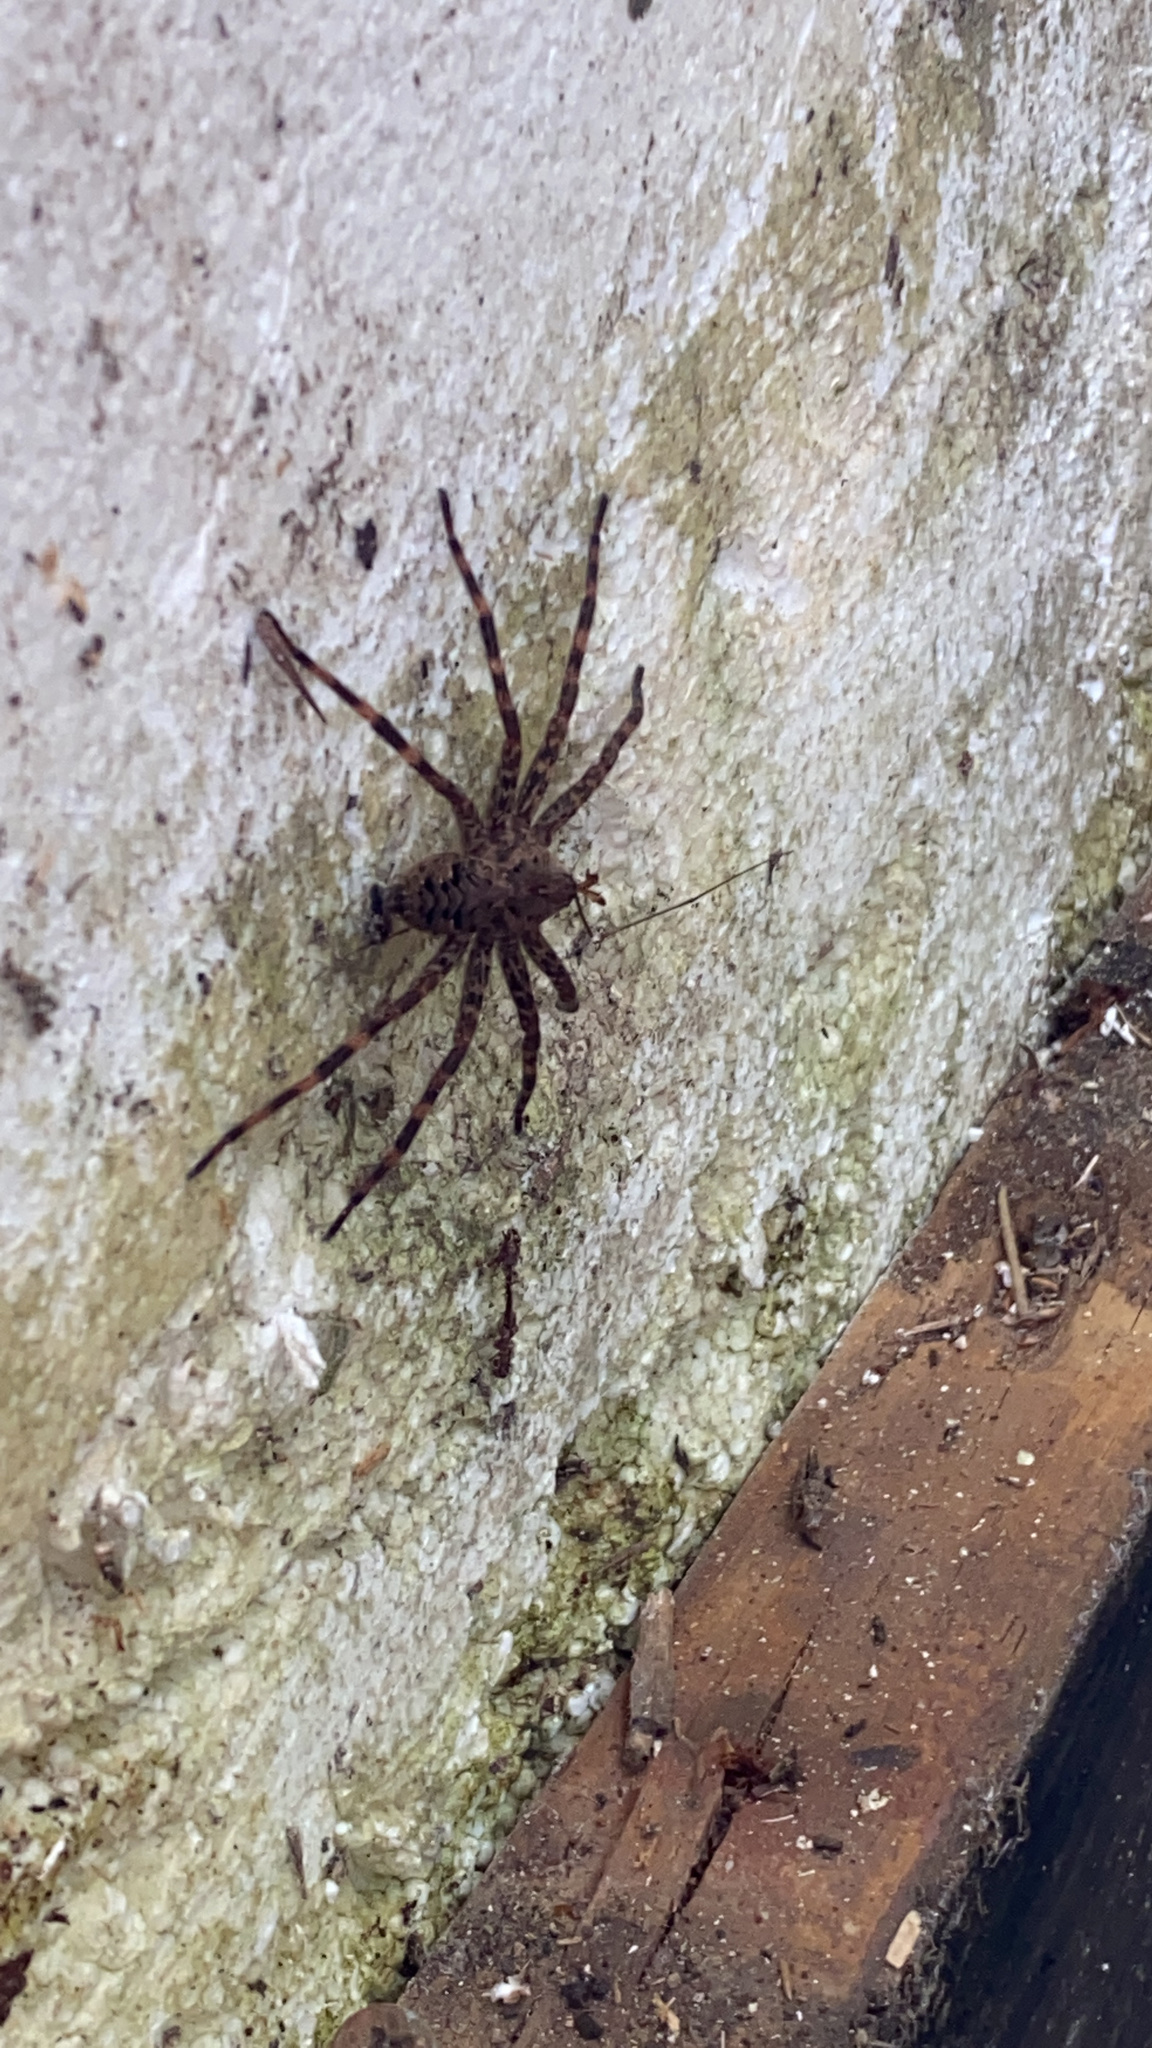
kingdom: Animalia
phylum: Arthropoda
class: Arachnida
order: Araneae
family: Pisauridae
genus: Dolomedes
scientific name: Dolomedes tenebrosus
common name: Dark fishing spider
